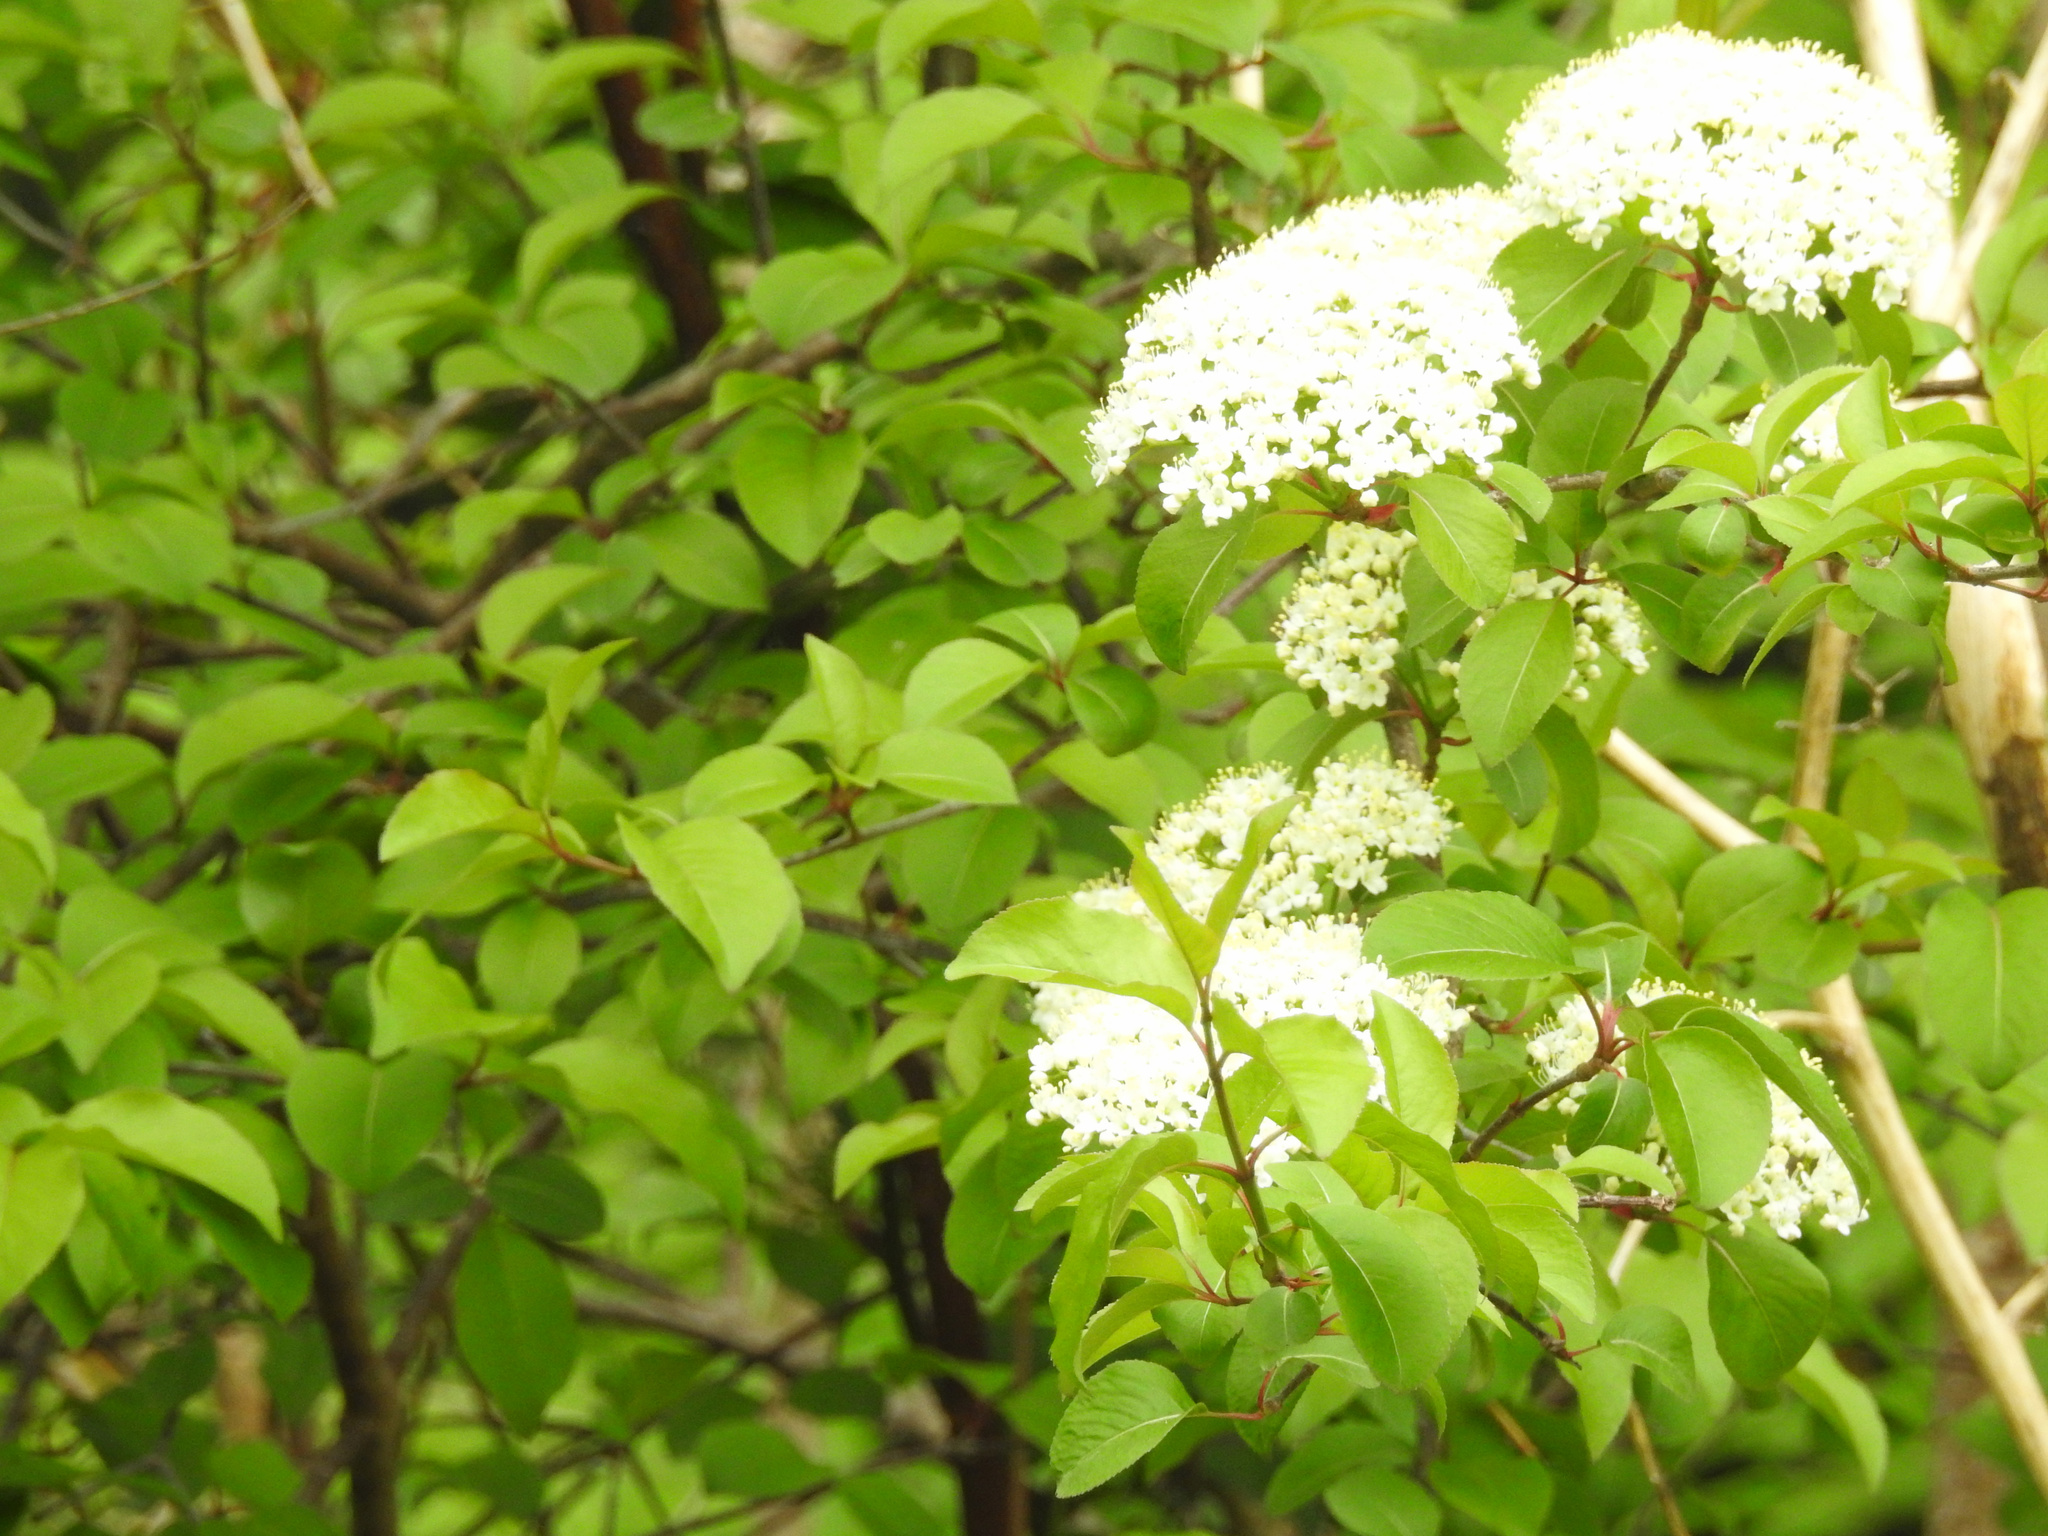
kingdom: Plantae
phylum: Tracheophyta
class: Magnoliopsida
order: Dipsacales
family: Viburnaceae
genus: Viburnum
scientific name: Viburnum prunifolium
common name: Black haw
